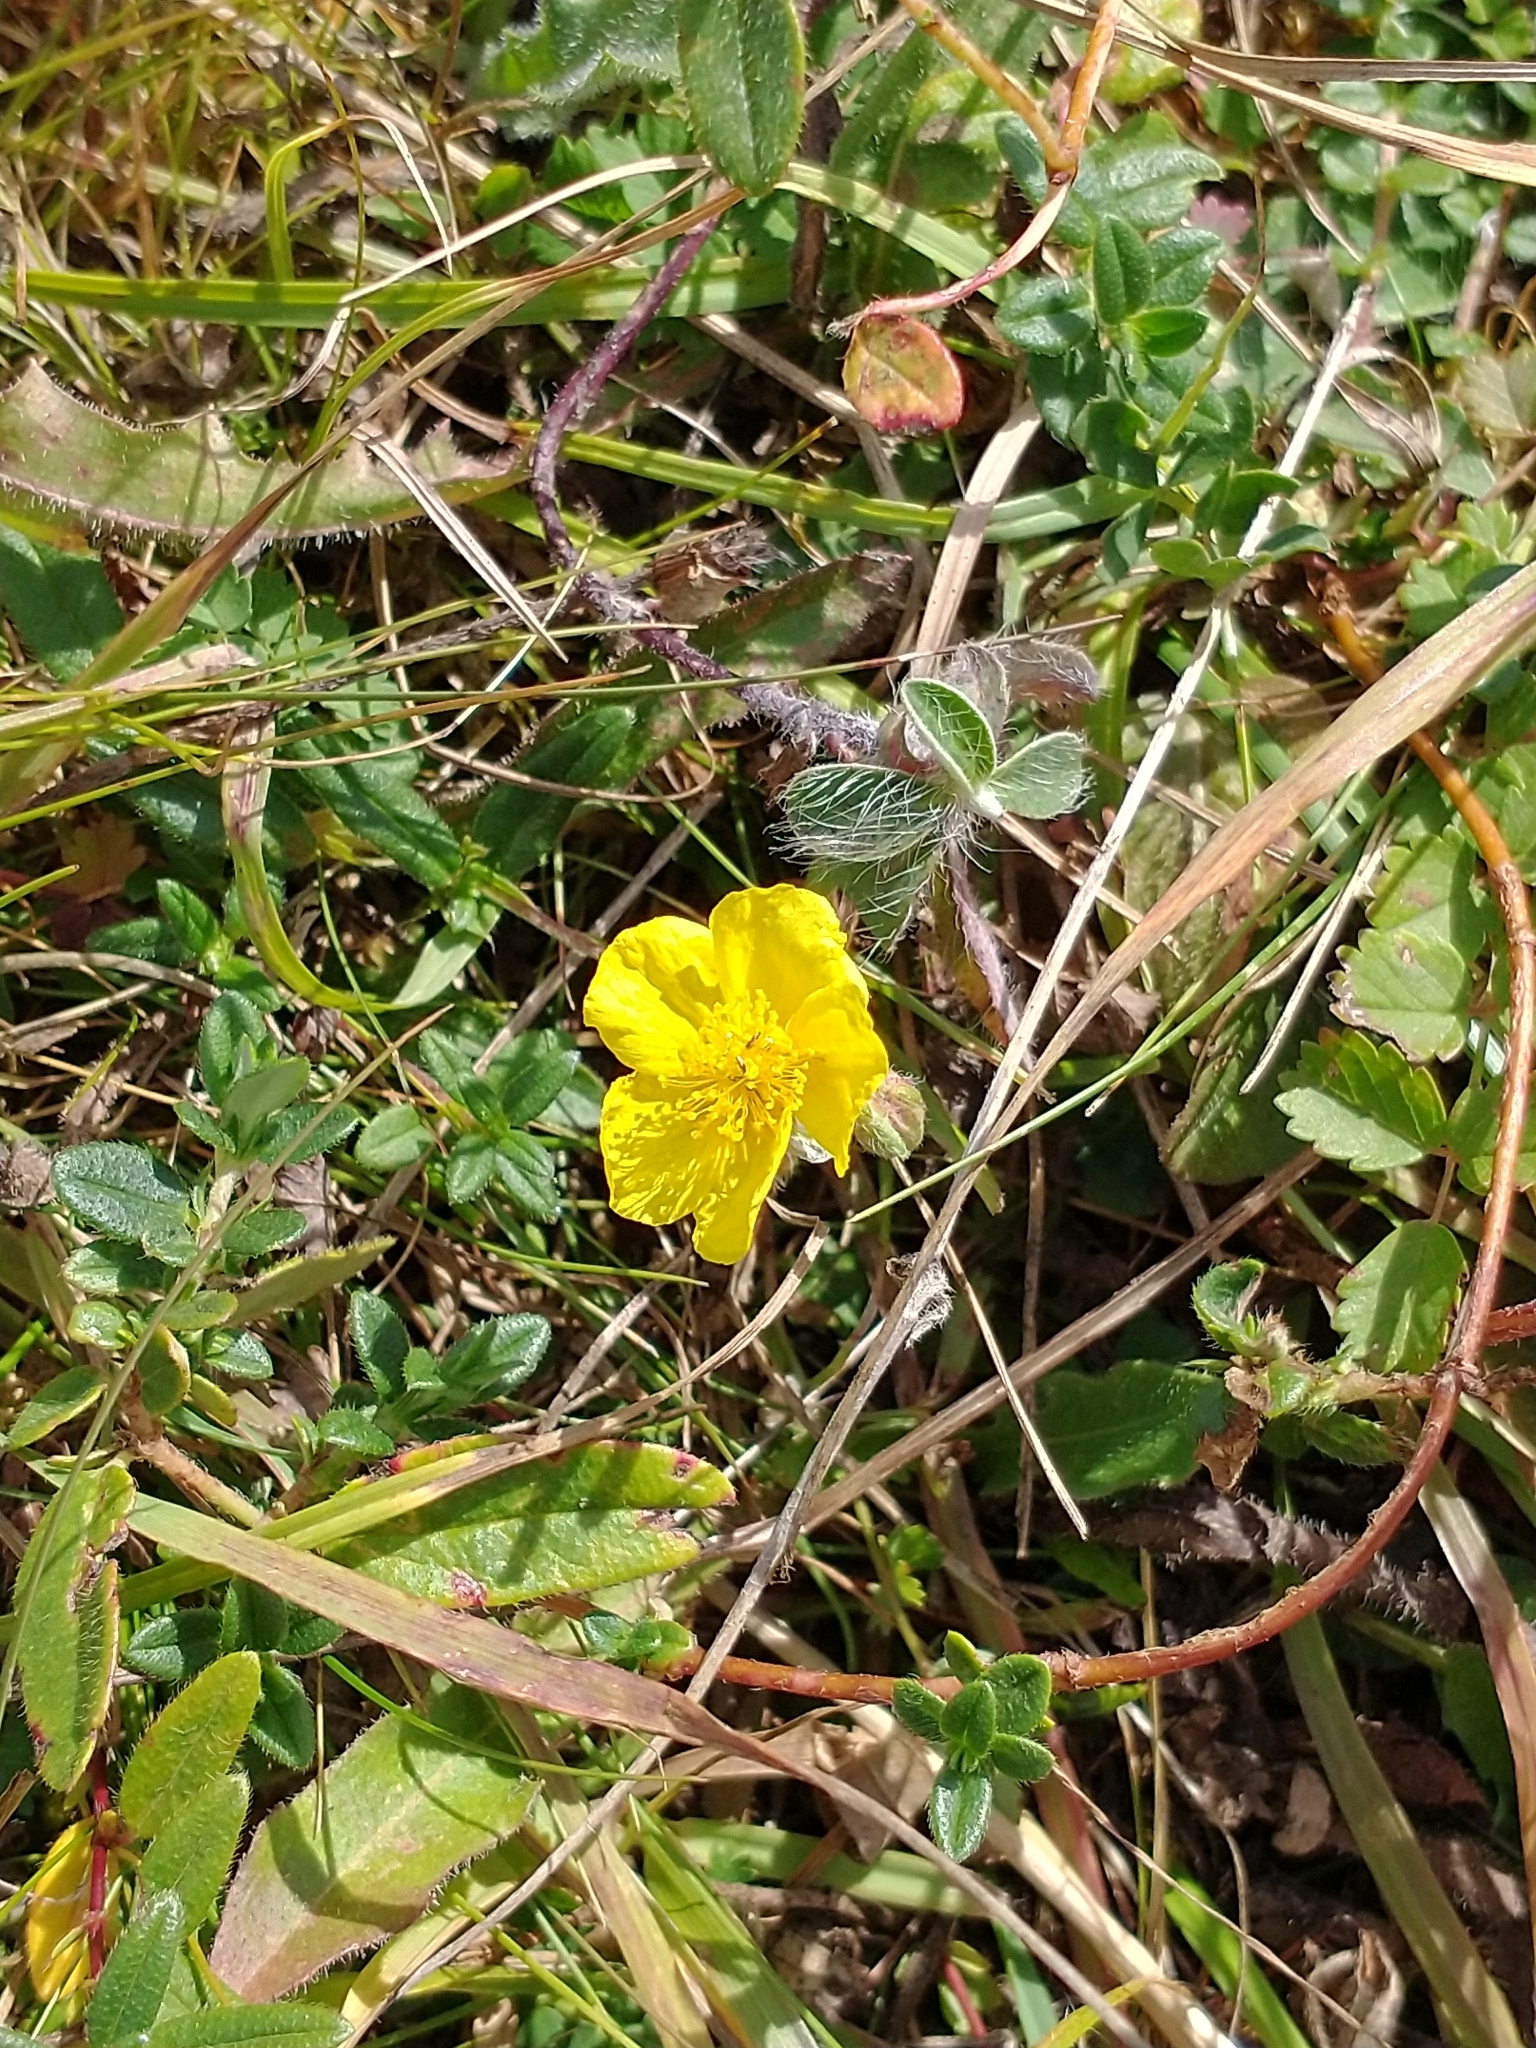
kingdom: Plantae
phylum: Tracheophyta
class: Magnoliopsida
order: Malvales
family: Cistaceae
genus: Helianthemum
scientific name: Helianthemum nummularium
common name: Common rock-rose
